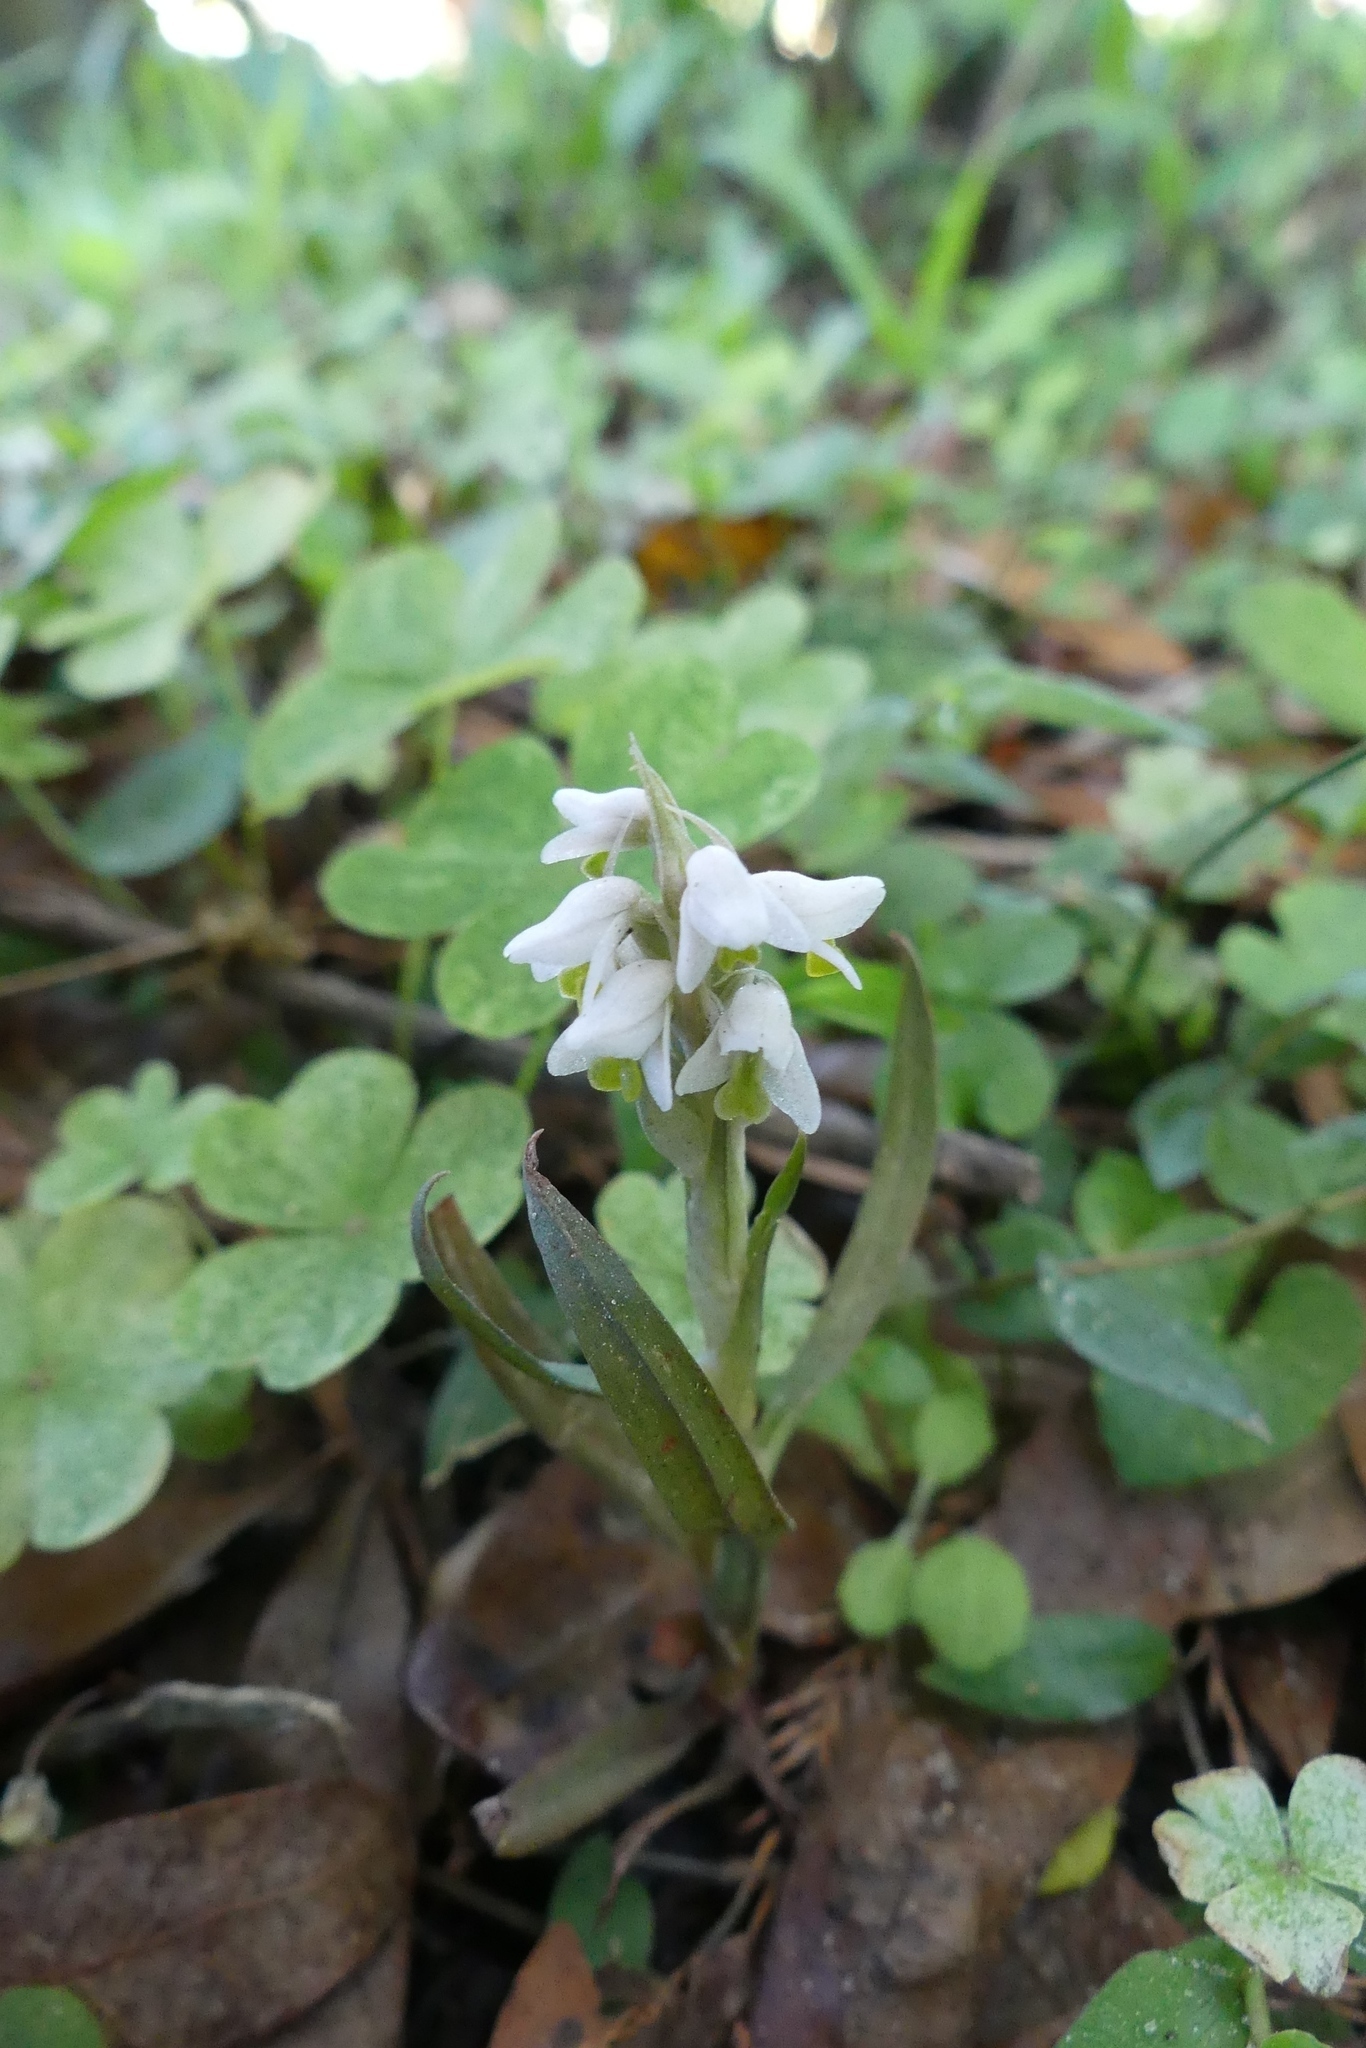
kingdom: Plantae
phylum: Tracheophyta
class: Liliopsida
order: Asparagales
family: Orchidaceae
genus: Zeuxine
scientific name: Zeuxine strateumatica
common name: Soldier's orchid
